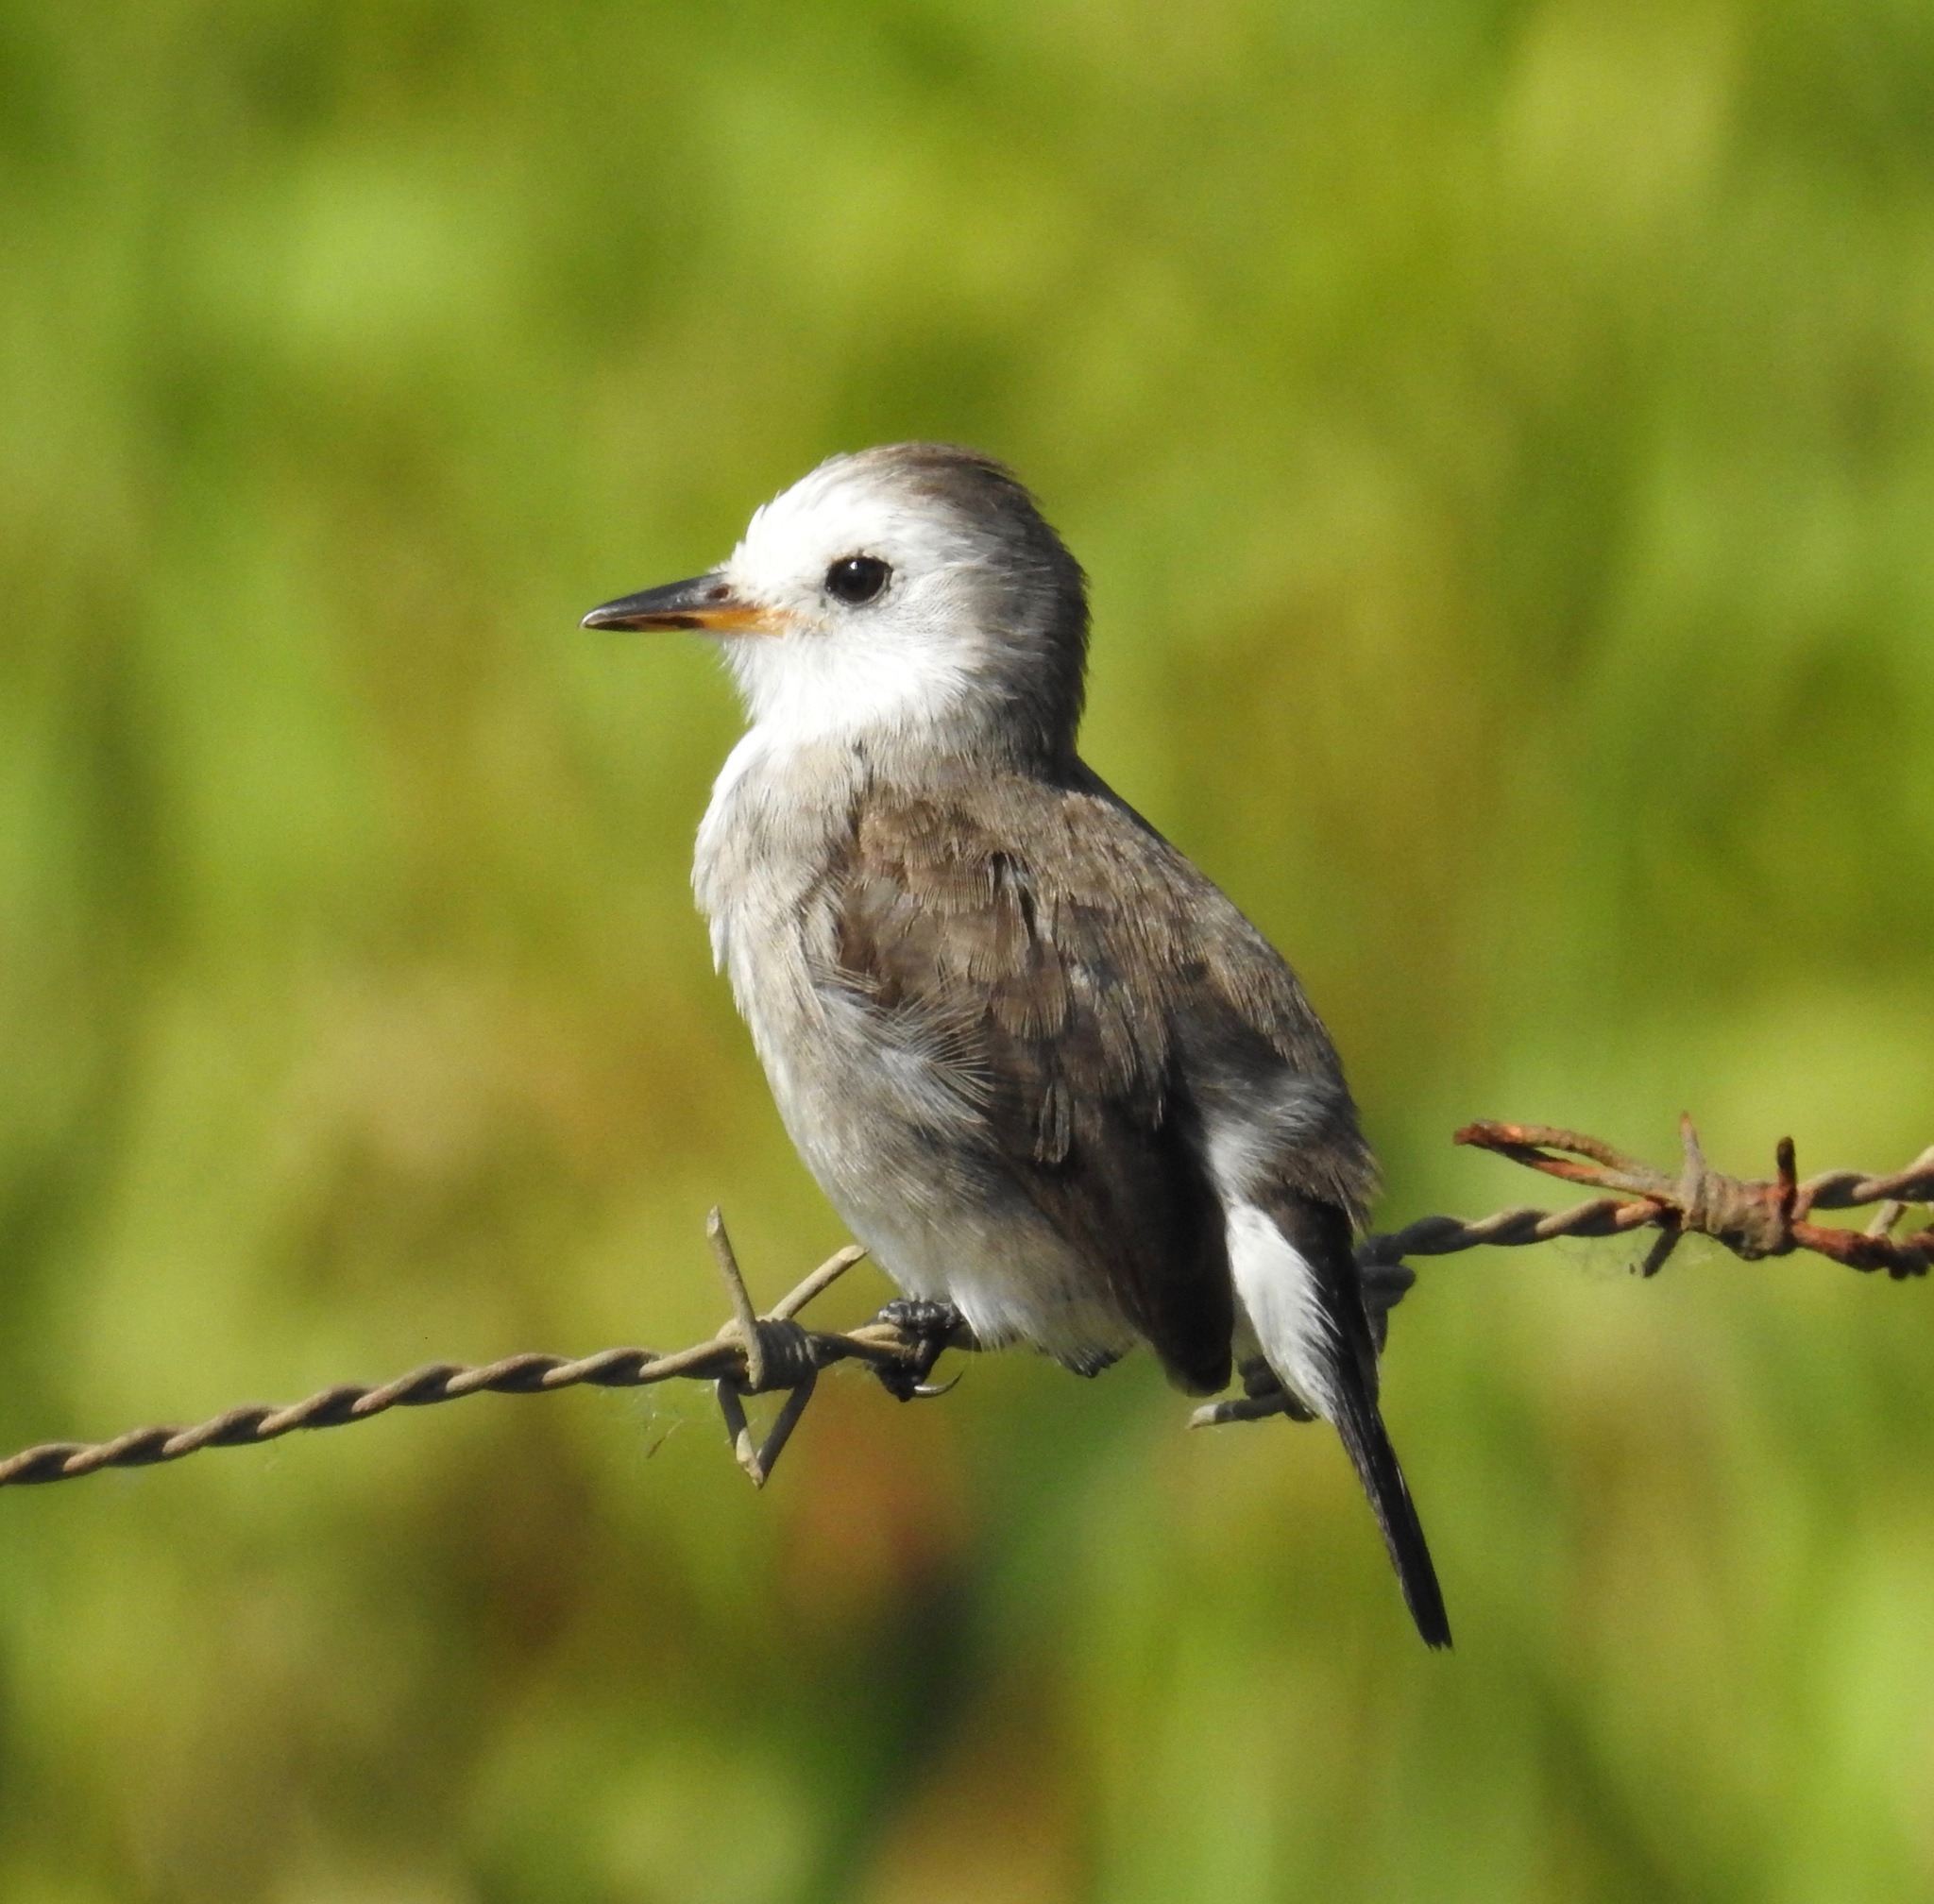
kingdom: Animalia
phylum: Chordata
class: Aves
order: Passeriformes
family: Tyrannidae
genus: Arundinicola
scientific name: Arundinicola leucocephala
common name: White-headed marsh tyrant
